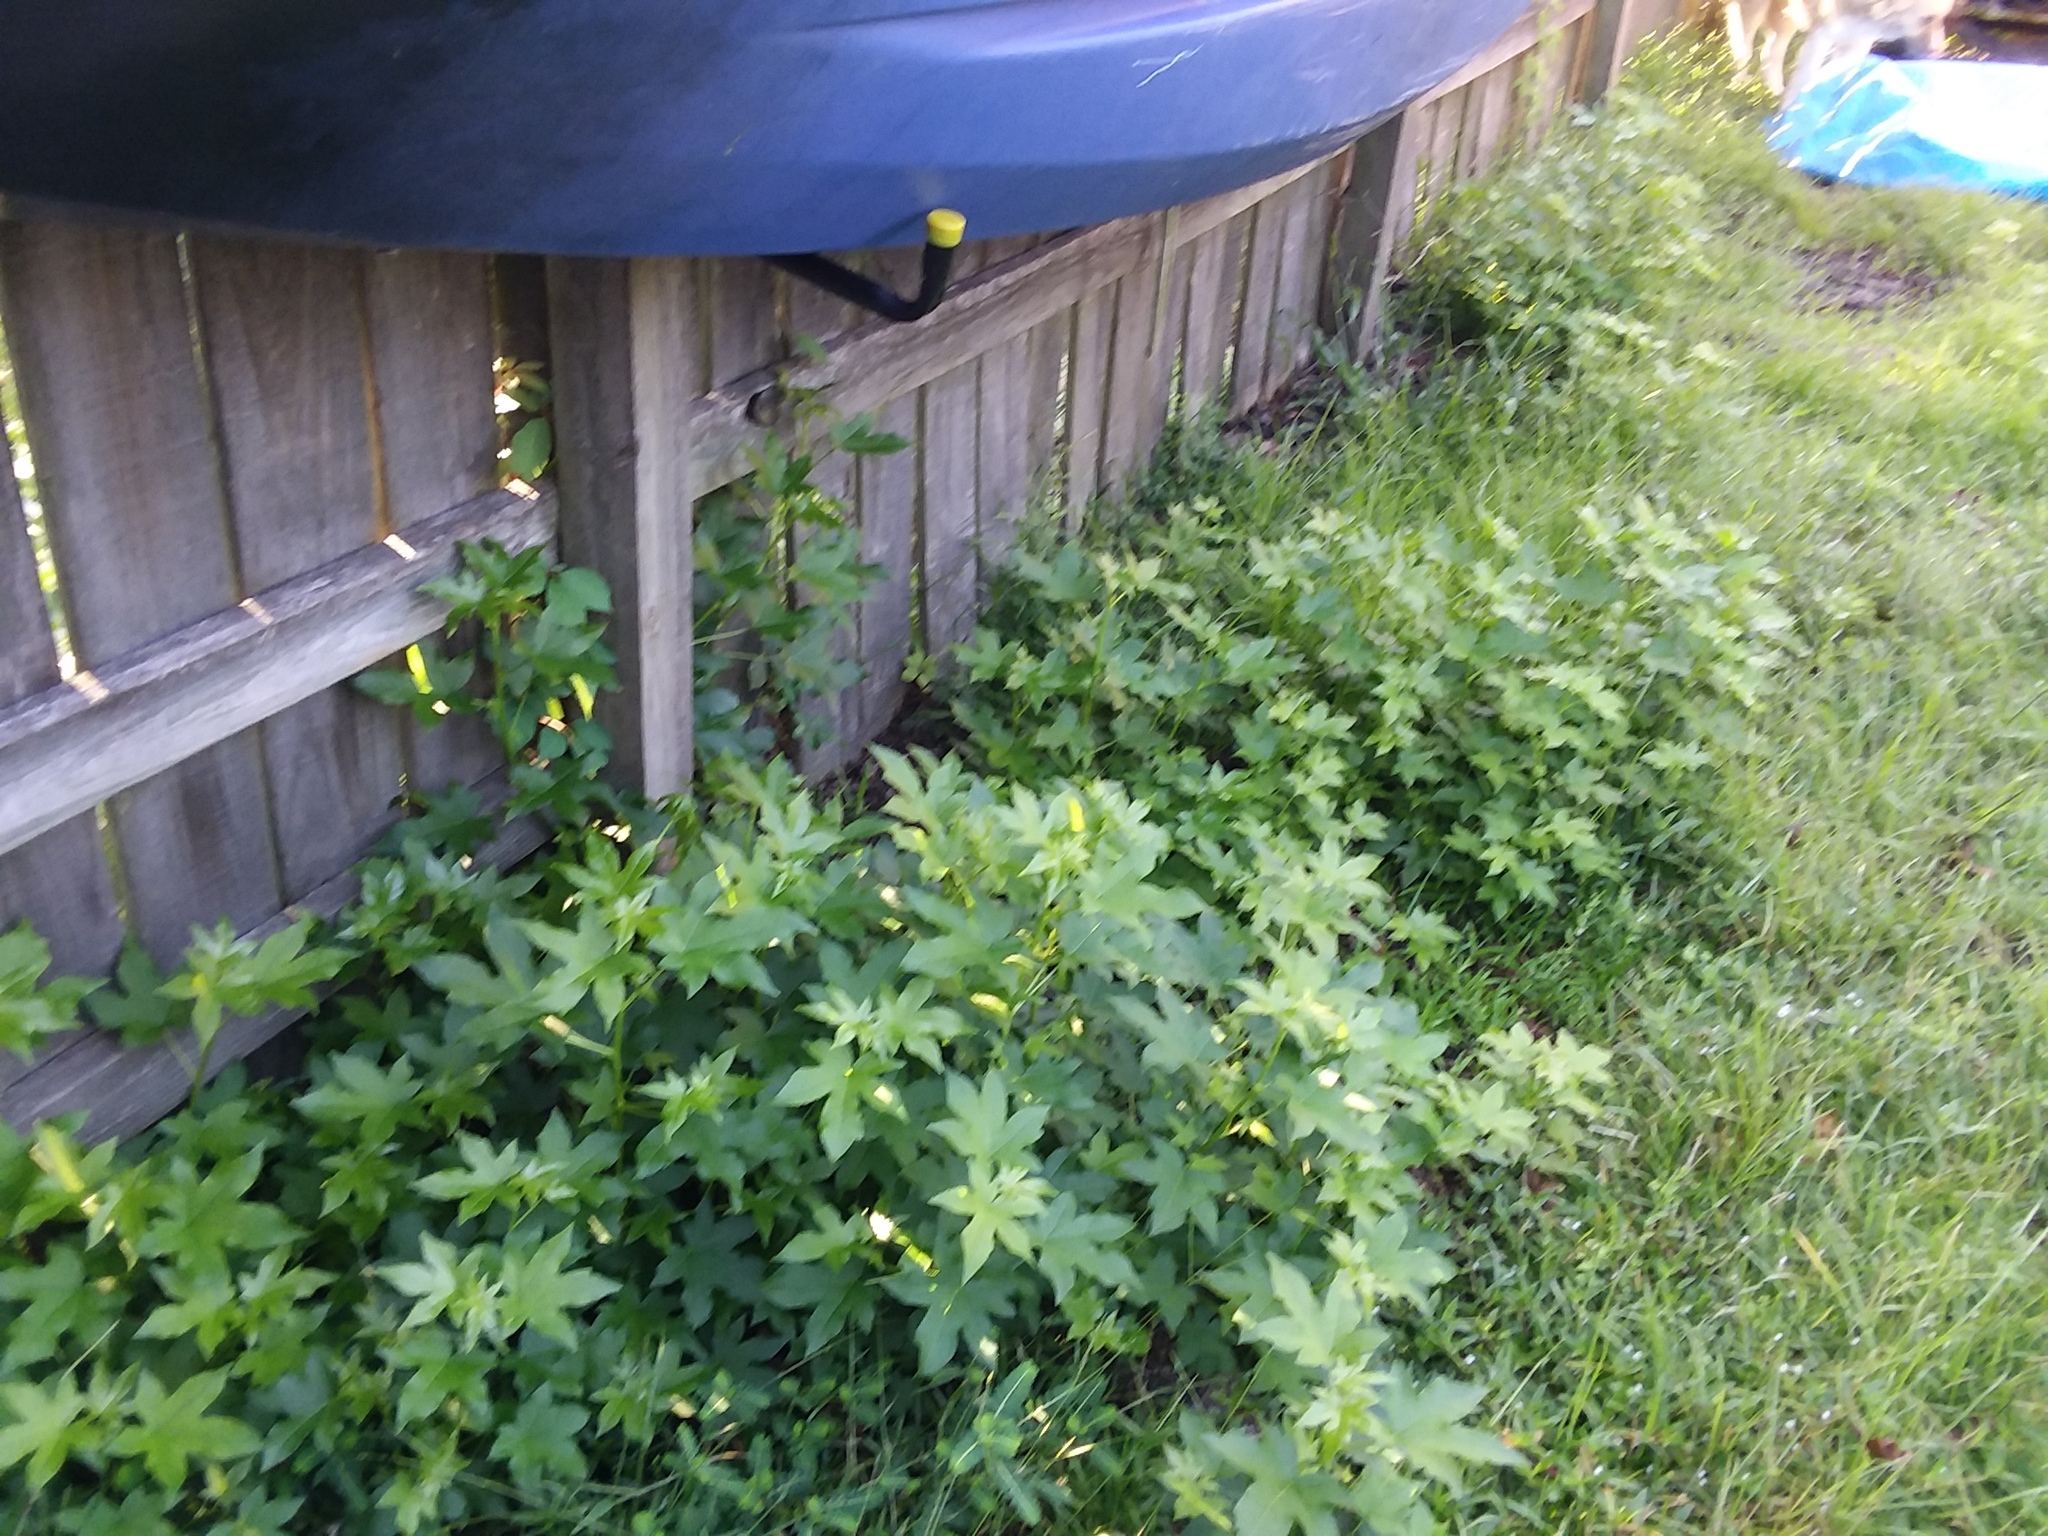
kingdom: Plantae
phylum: Tracheophyta
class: Magnoliopsida
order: Saxifragales
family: Altingiaceae
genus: Liquidambar
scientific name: Liquidambar styraciflua
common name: Sweet gum
